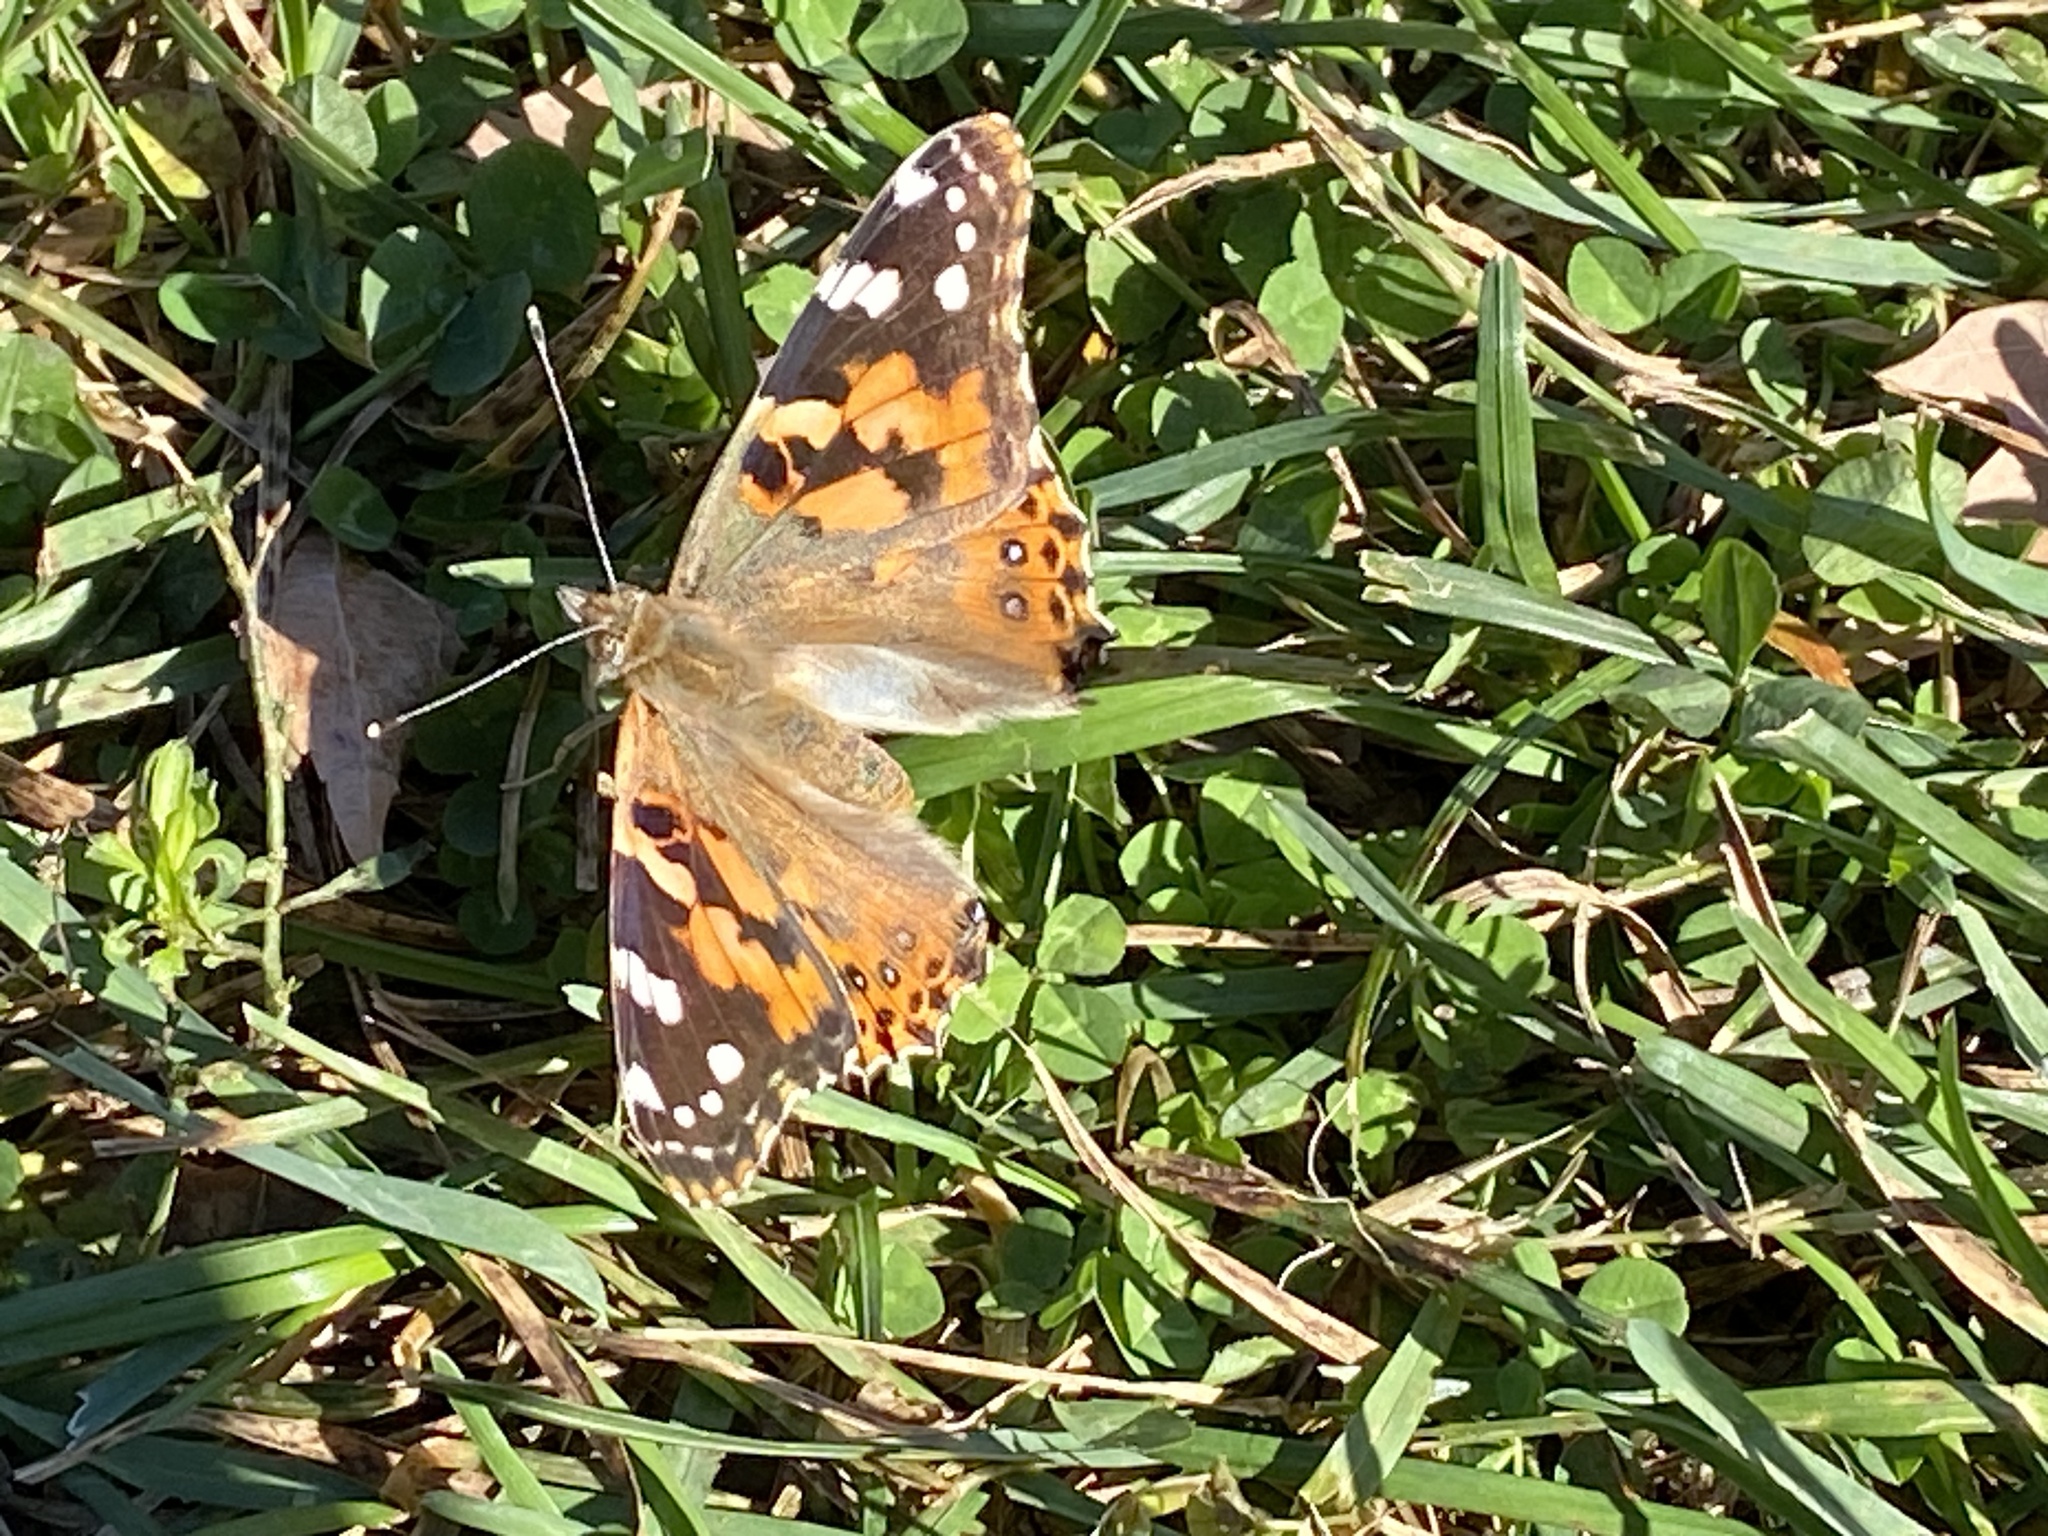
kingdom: Animalia
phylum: Arthropoda
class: Insecta
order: Lepidoptera
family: Nymphalidae
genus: Vanessa
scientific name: Vanessa cardui
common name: Painted lady
